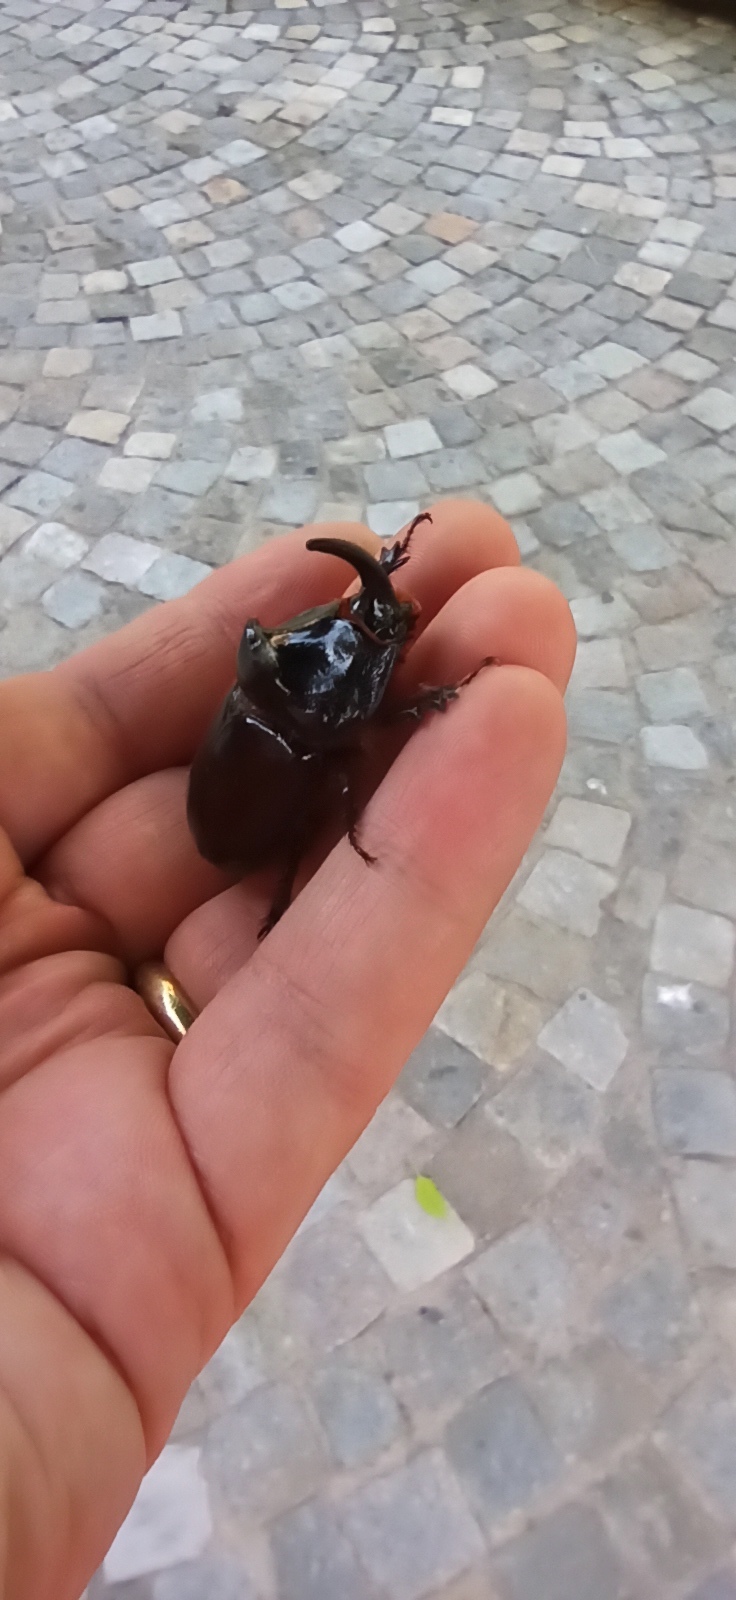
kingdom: Animalia
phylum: Arthropoda
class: Insecta
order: Coleoptera
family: Scarabaeidae
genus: Oryctes
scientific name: Oryctes nasicornis
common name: European rhinoceros beetle
